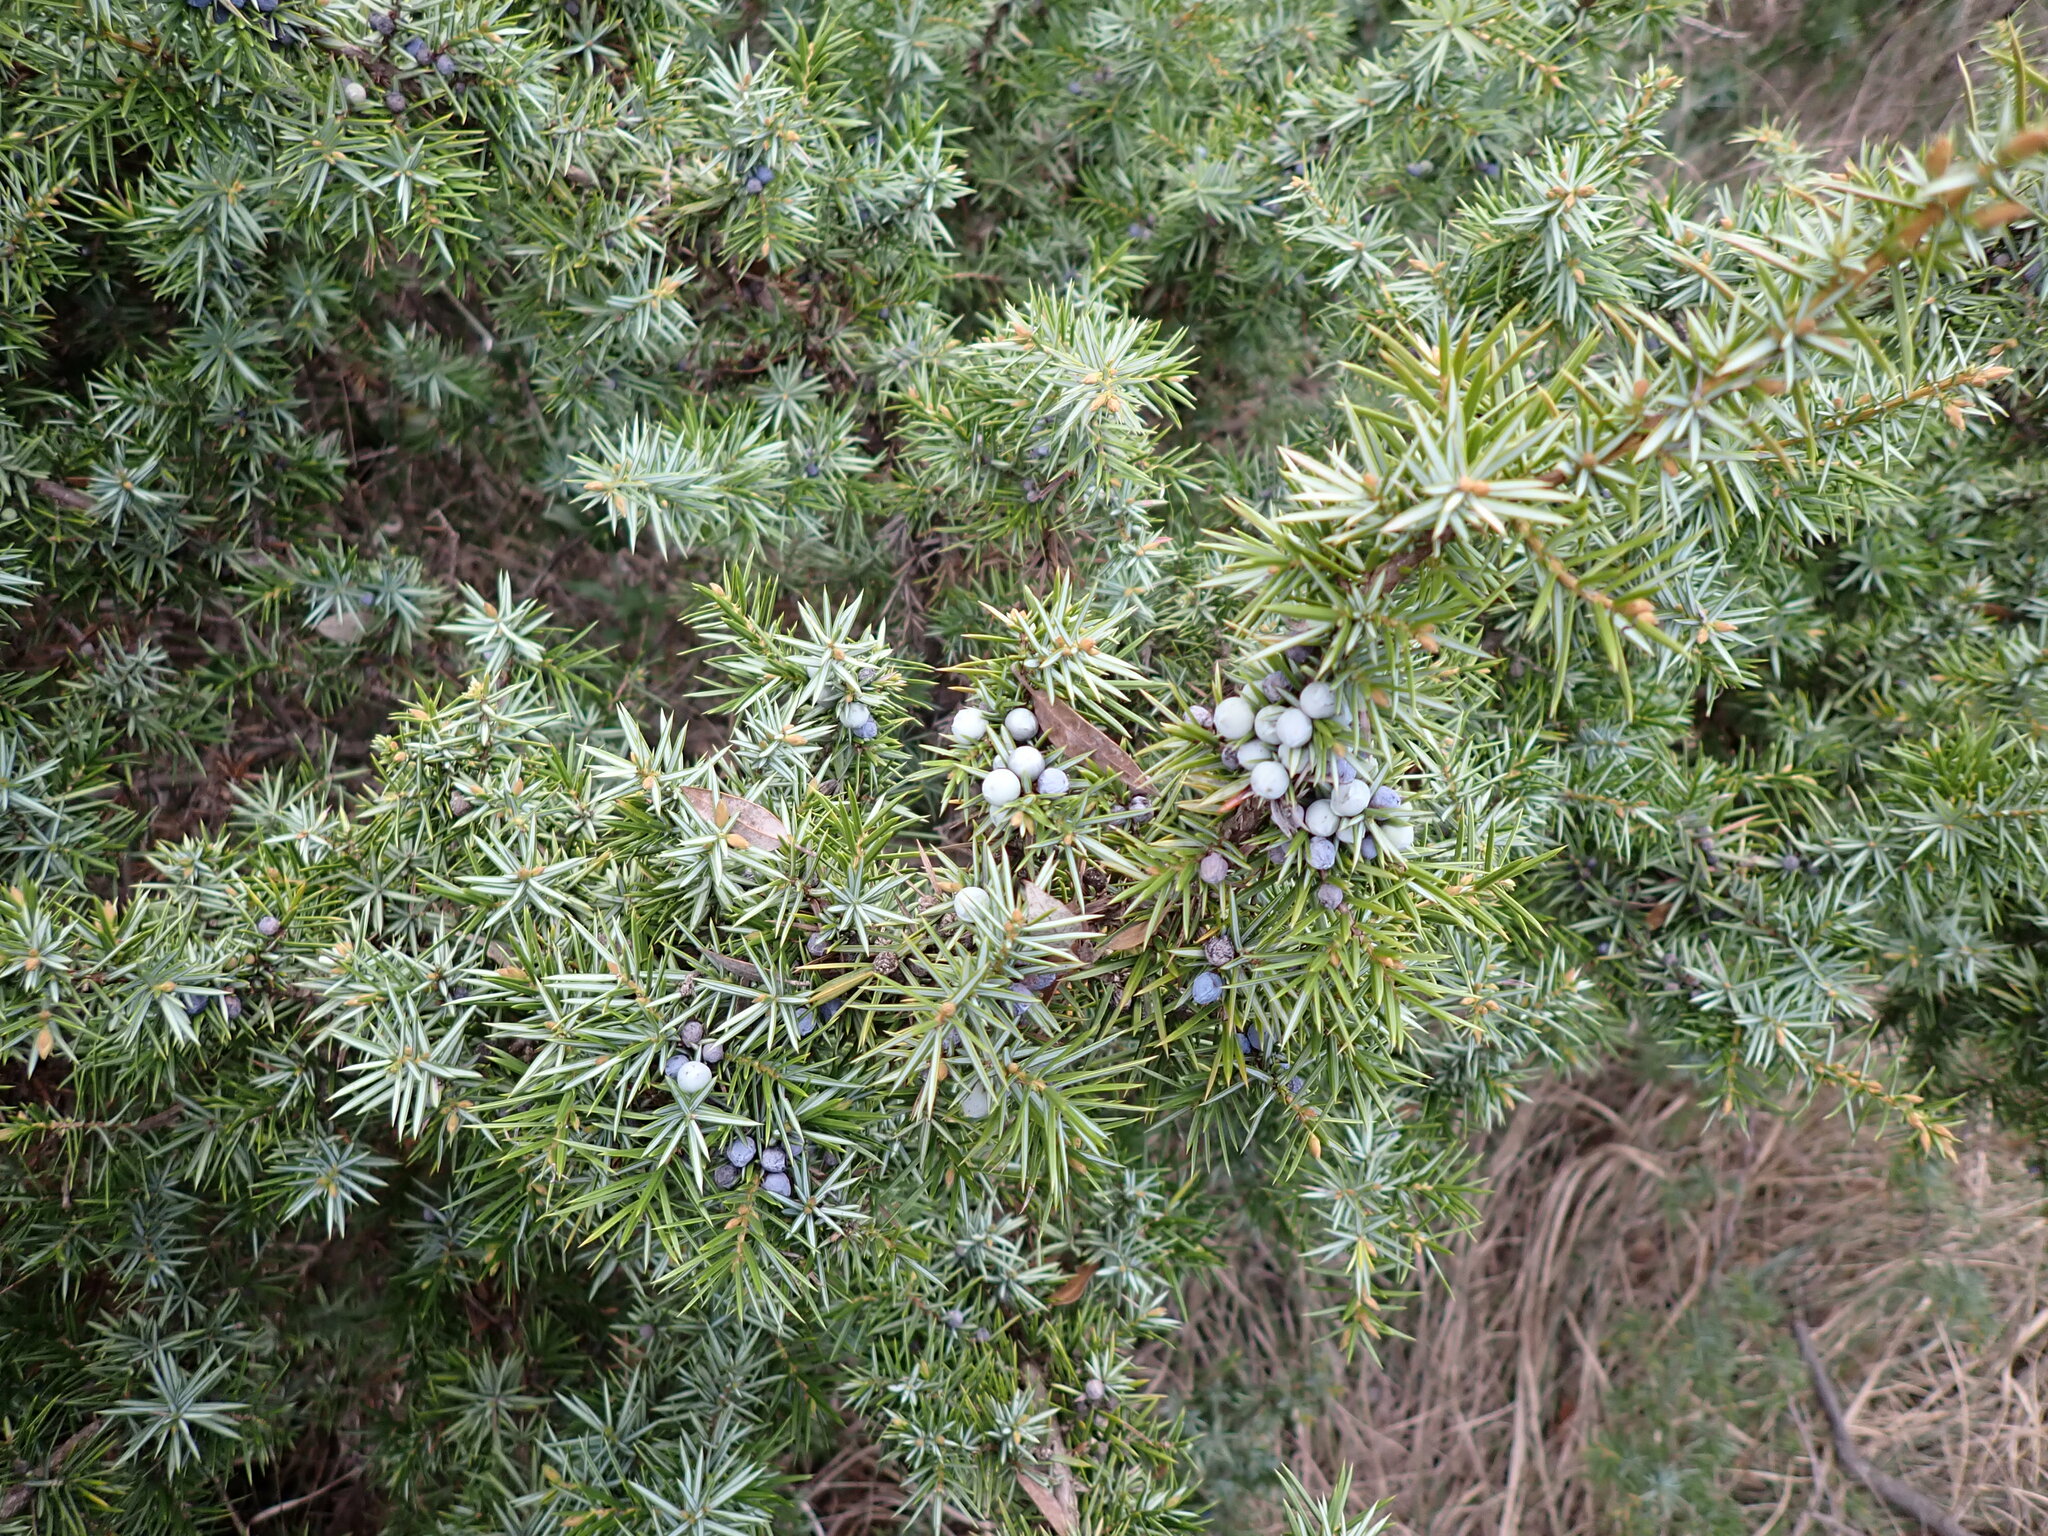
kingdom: Plantae
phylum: Tracheophyta
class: Pinopsida
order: Pinales
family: Cupressaceae
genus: Juniperus
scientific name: Juniperus communis
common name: Common juniper
